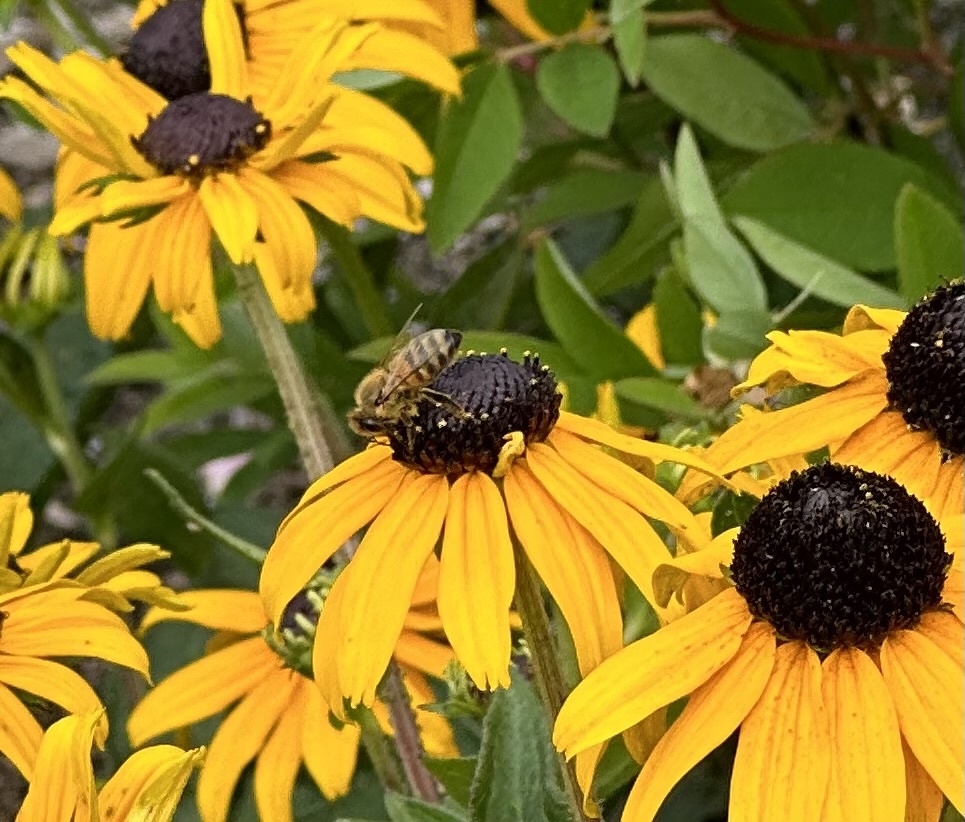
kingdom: Animalia
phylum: Arthropoda
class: Insecta
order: Hymenoptera
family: Apidae
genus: Apis
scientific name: Apis mellifera
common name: Honey bee
